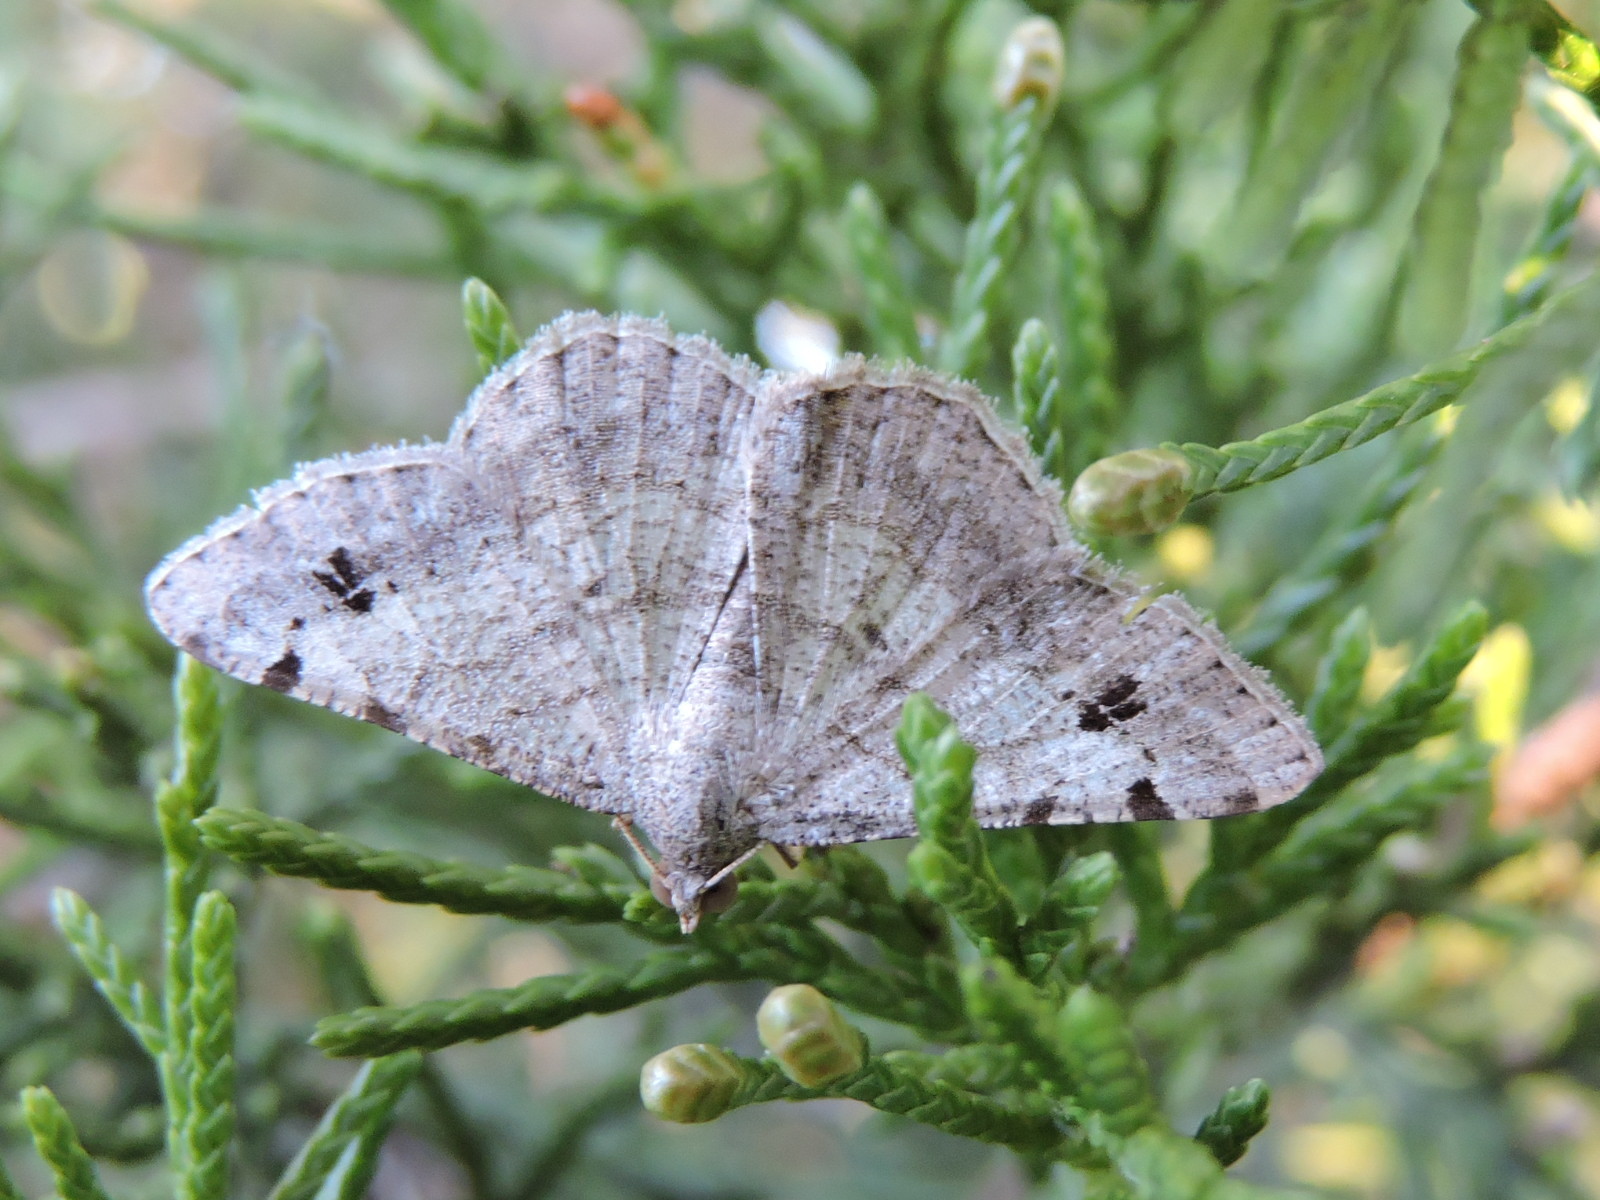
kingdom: Animalia
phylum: Arthropoda
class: Insecta
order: Lepidoptera
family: Geometridae
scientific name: Geometridae
